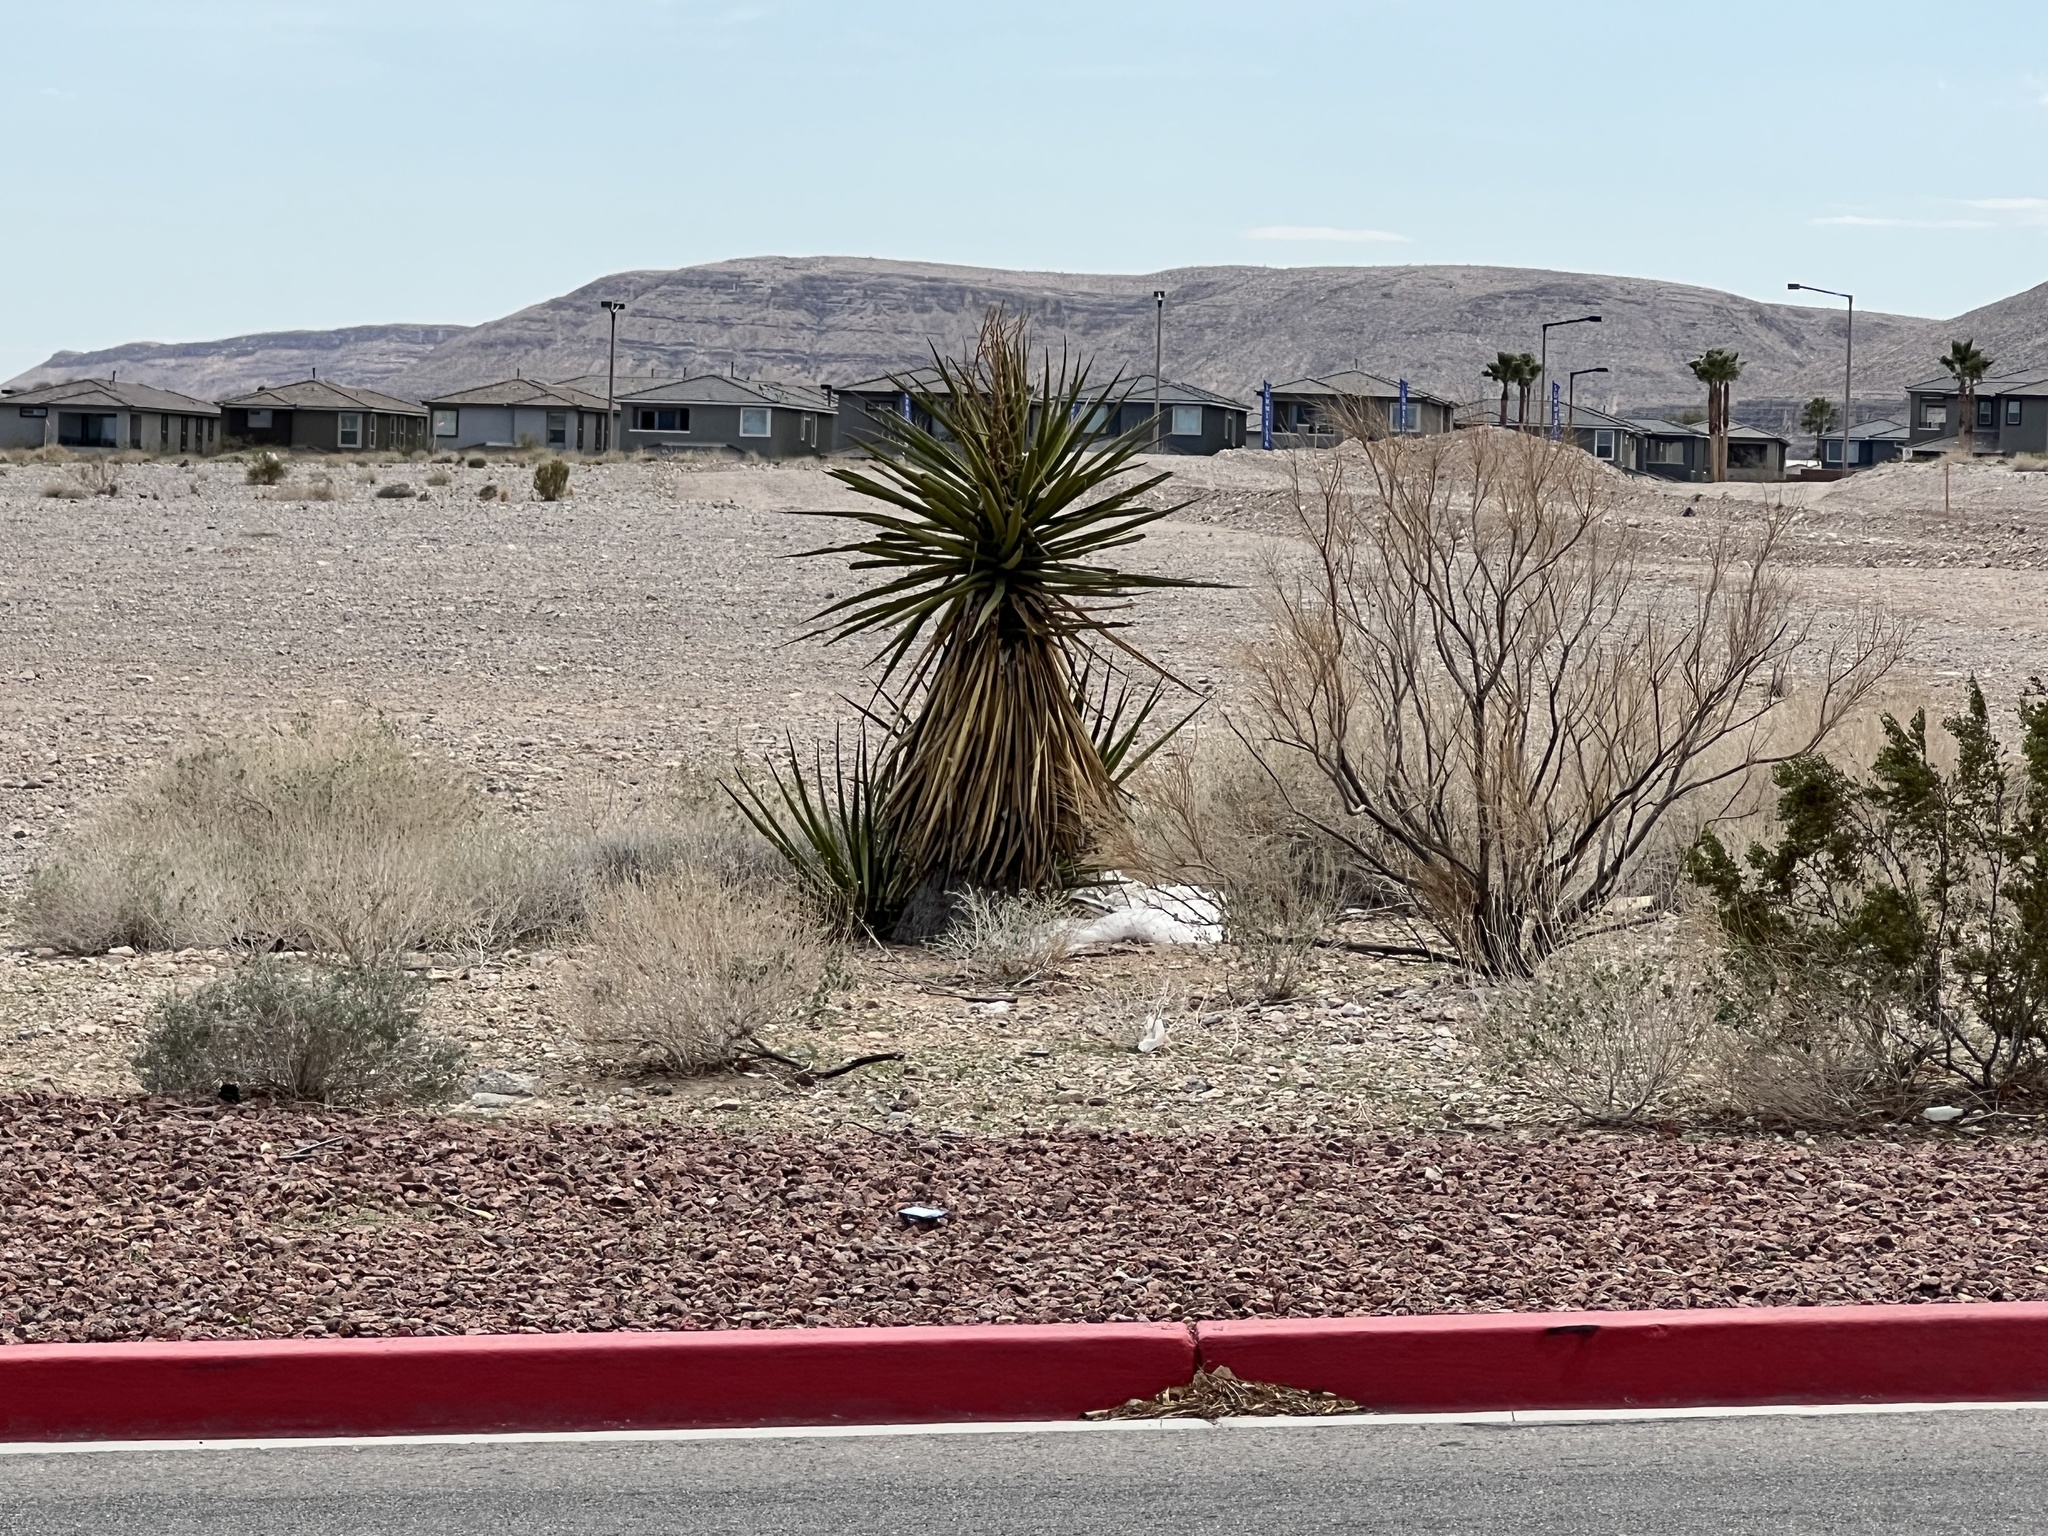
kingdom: Plantae
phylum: Tracheophyta
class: Liliopsida
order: Asparagales
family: Asparagaceae
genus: Yucca
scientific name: Yucca schidigera
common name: Mojave yucca
